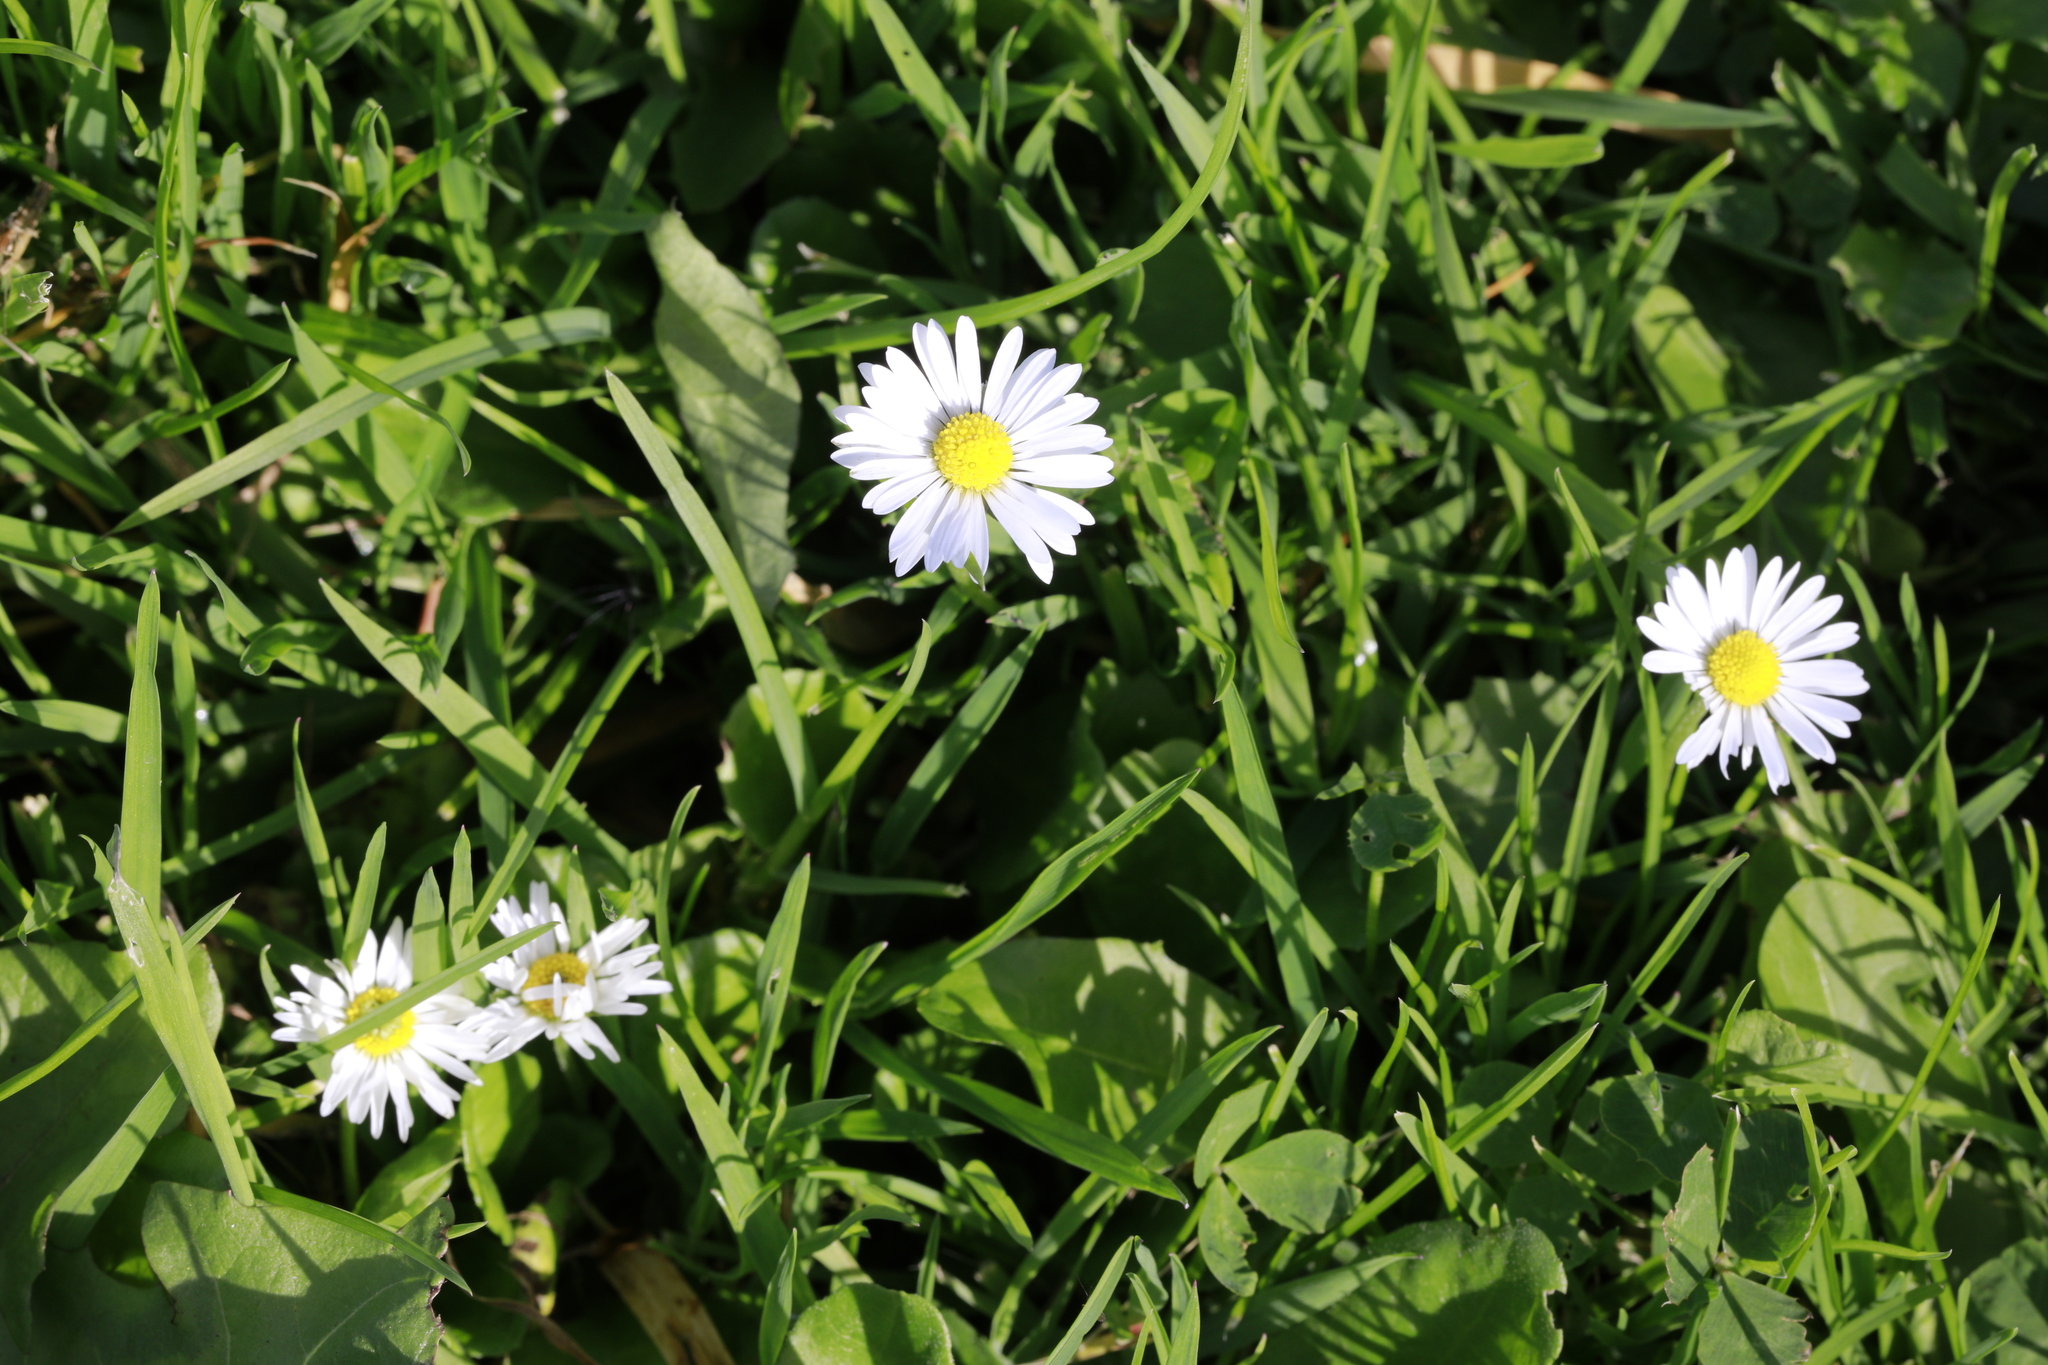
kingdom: Plantae
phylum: Tracheophyta
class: Magnoliopsida
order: Asterales
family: Asteraceae
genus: Bellis
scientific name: Bellis perennis
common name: Lawndaisy
